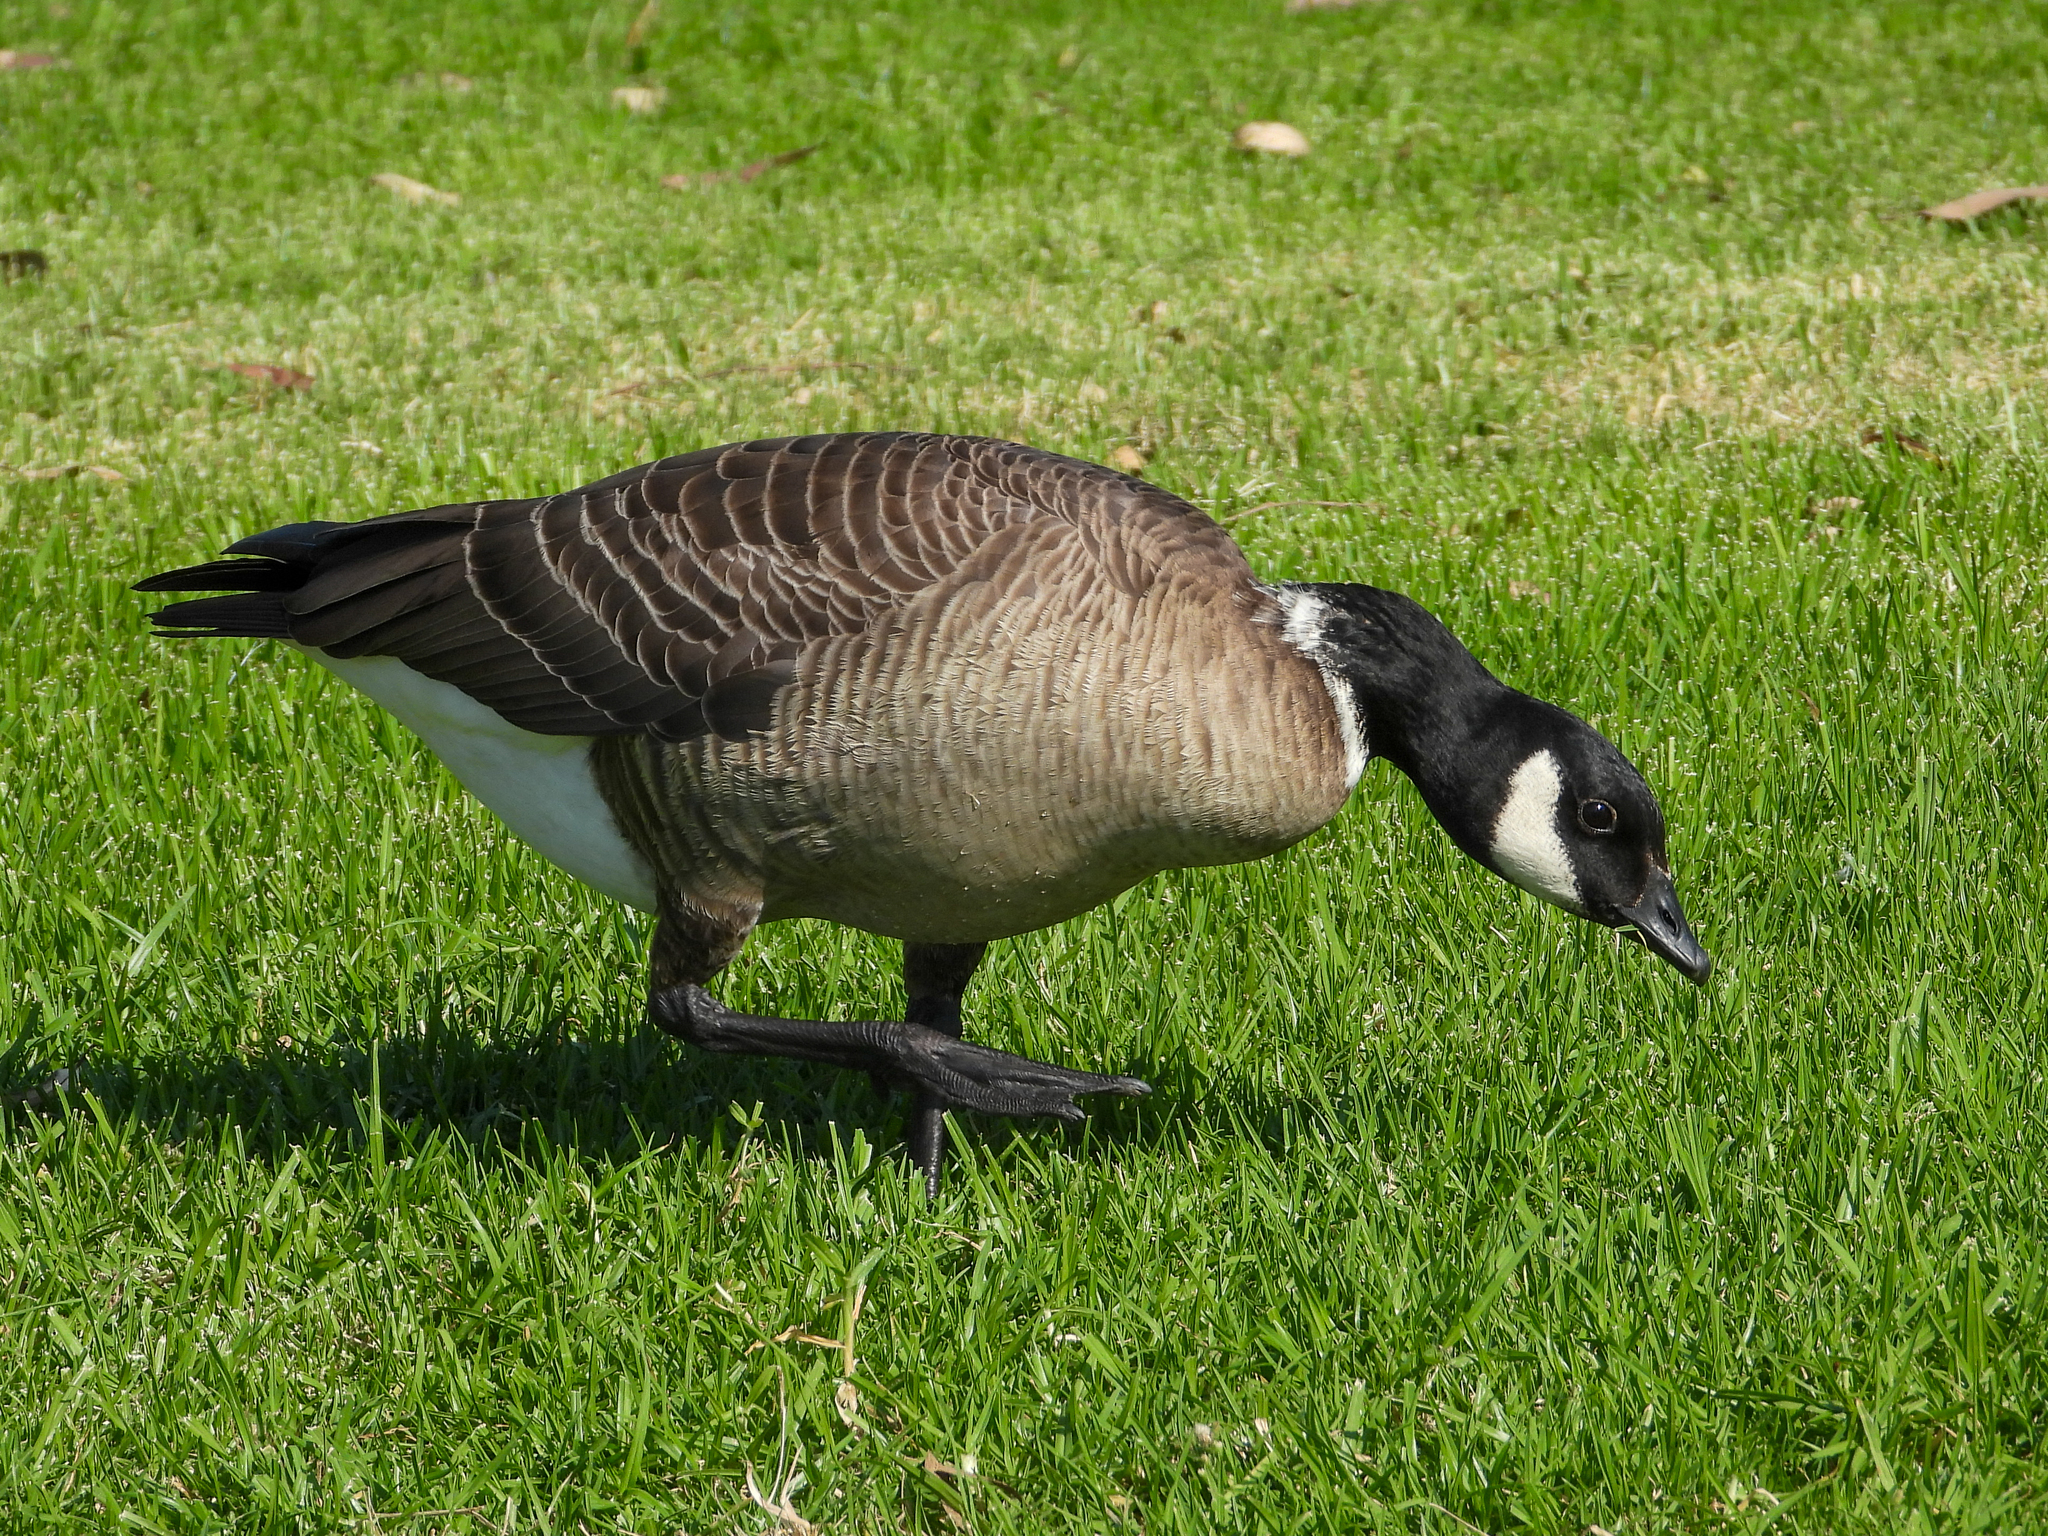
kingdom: Animalia
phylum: Chordata
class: Aves
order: Anseriformes
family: Anatidae
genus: Branta
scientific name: Branta hutchinsii
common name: Cackling goose
